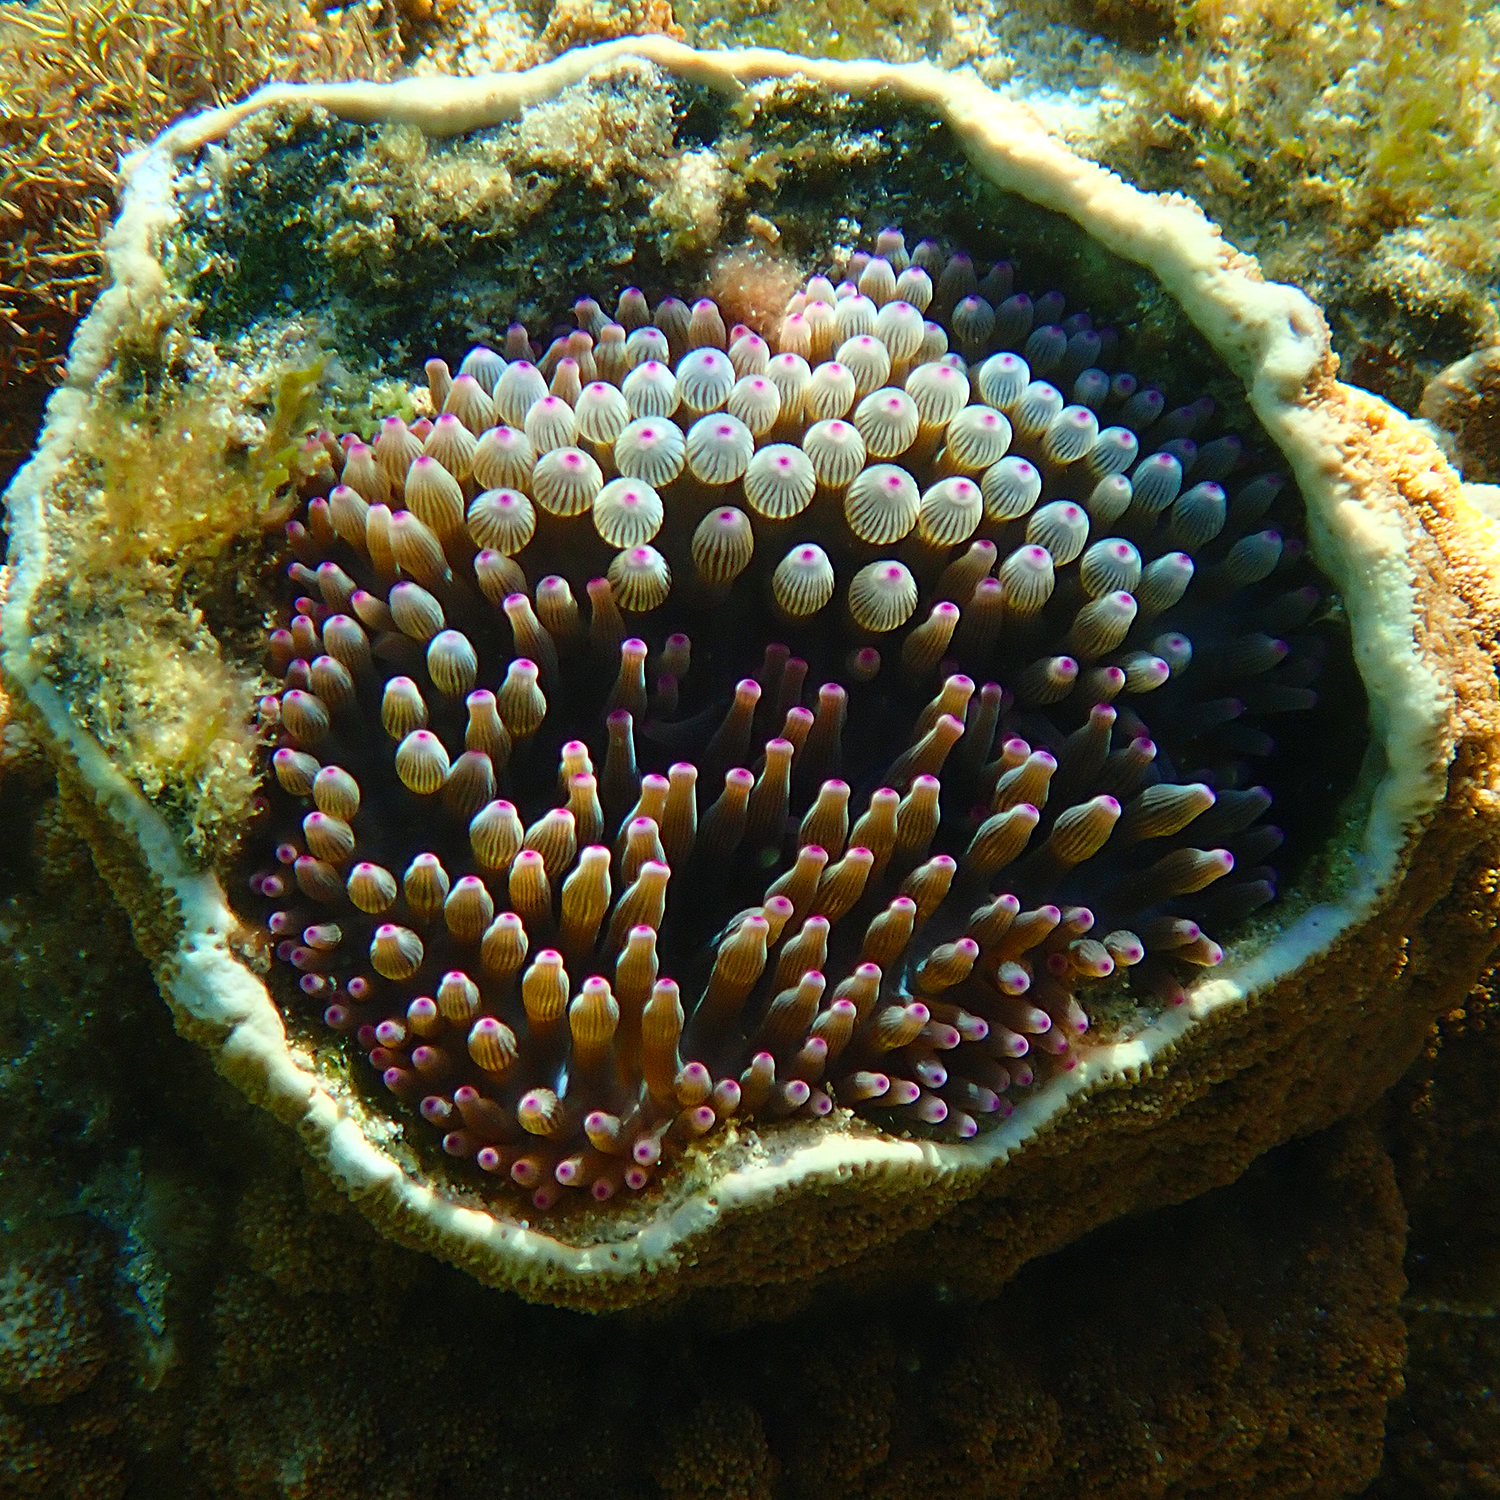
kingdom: Animalia
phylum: Cnidaria
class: Anthozoa
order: Actiniaria
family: Actiniidae
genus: Entacmaea
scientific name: Entacmaea quadricolor
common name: Bulb tentacle sea anemone
